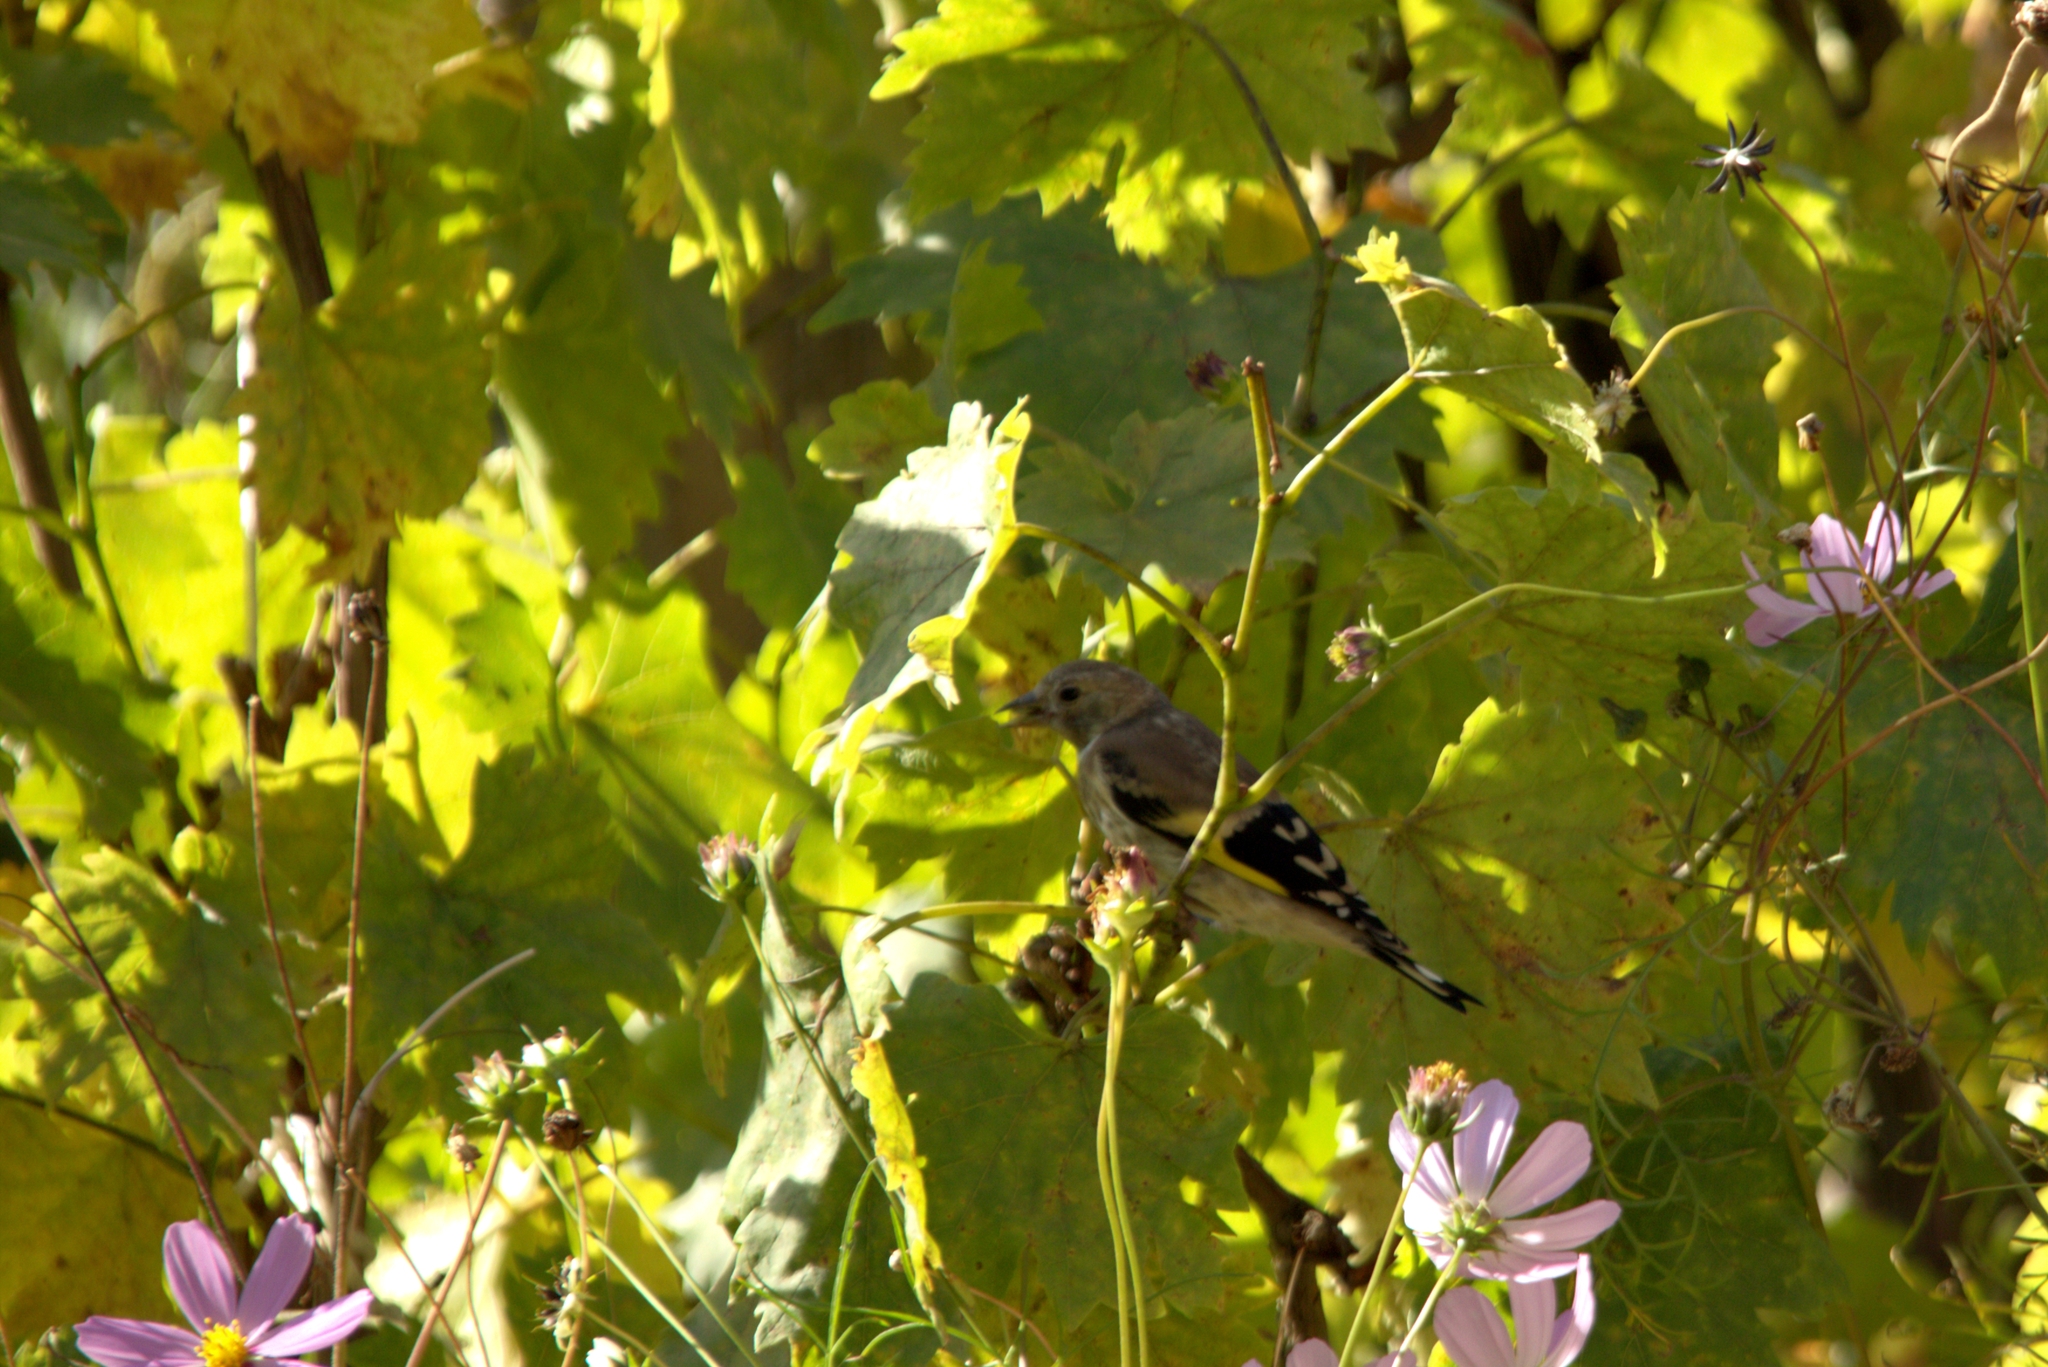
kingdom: Animalia
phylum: Chordata
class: Aves
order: Passeriformes
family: Fringillidae
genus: Carduelis
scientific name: Carduelis carduelis
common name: European goldfinch
